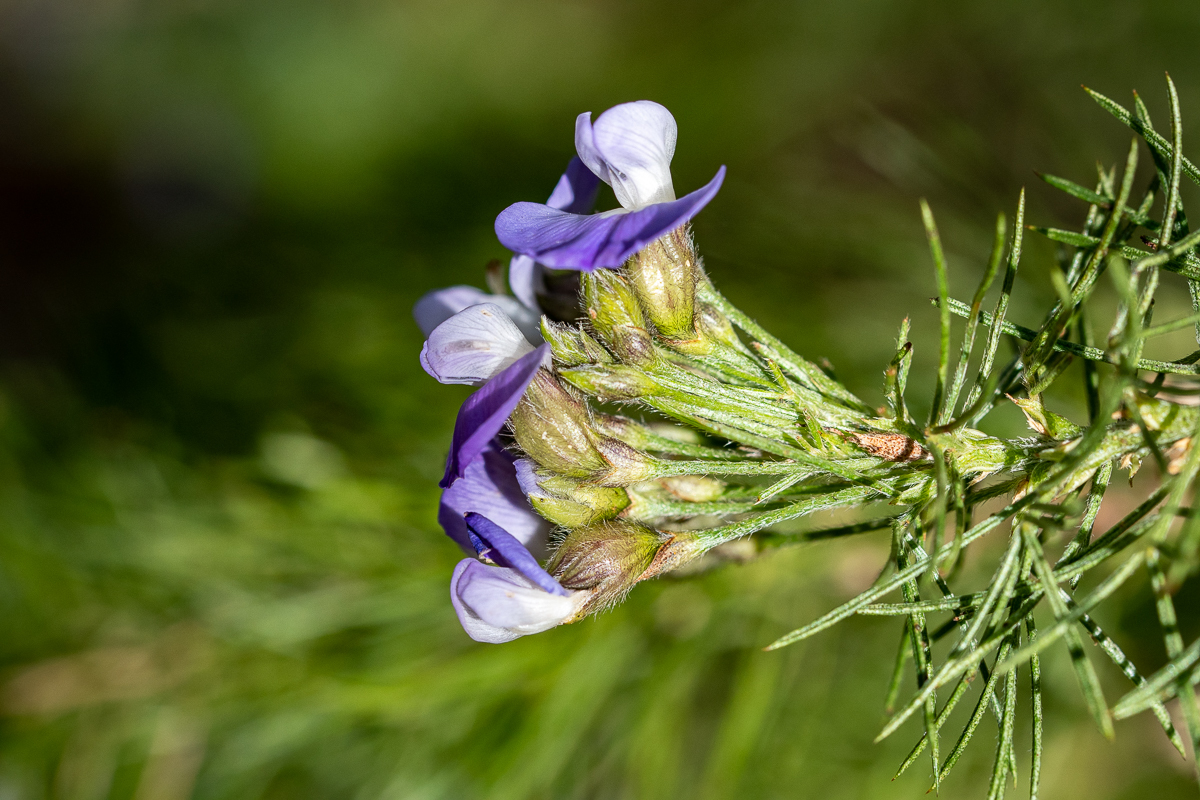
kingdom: Plantae
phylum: Tracheophyta
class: Magnoliopsida
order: Fabales
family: Fabaceae
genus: Psoralea
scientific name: Psoralea pinnata
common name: African scurfpea
